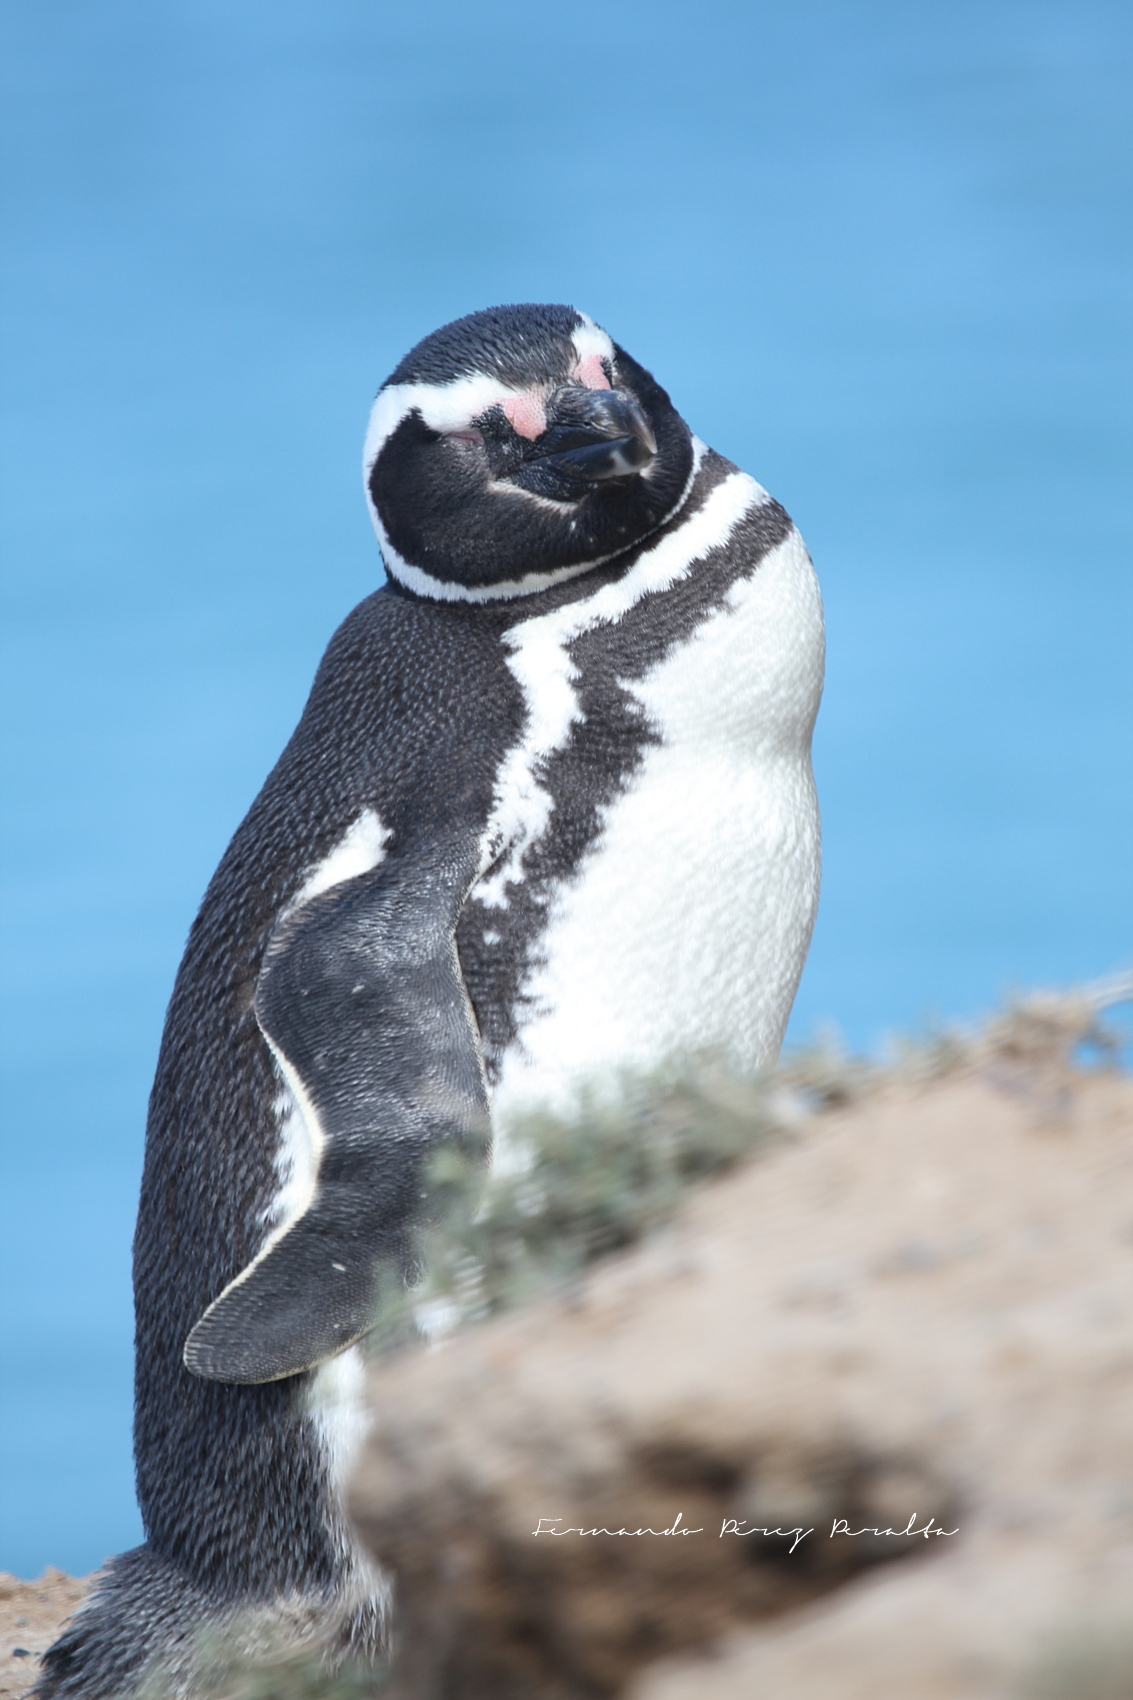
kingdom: Animalia
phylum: Chordata
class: Aves
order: Sphenisciformes
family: Spheniscidae
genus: Spheniscus
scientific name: Spheniscus magellanicus
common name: Magellanic penguin
